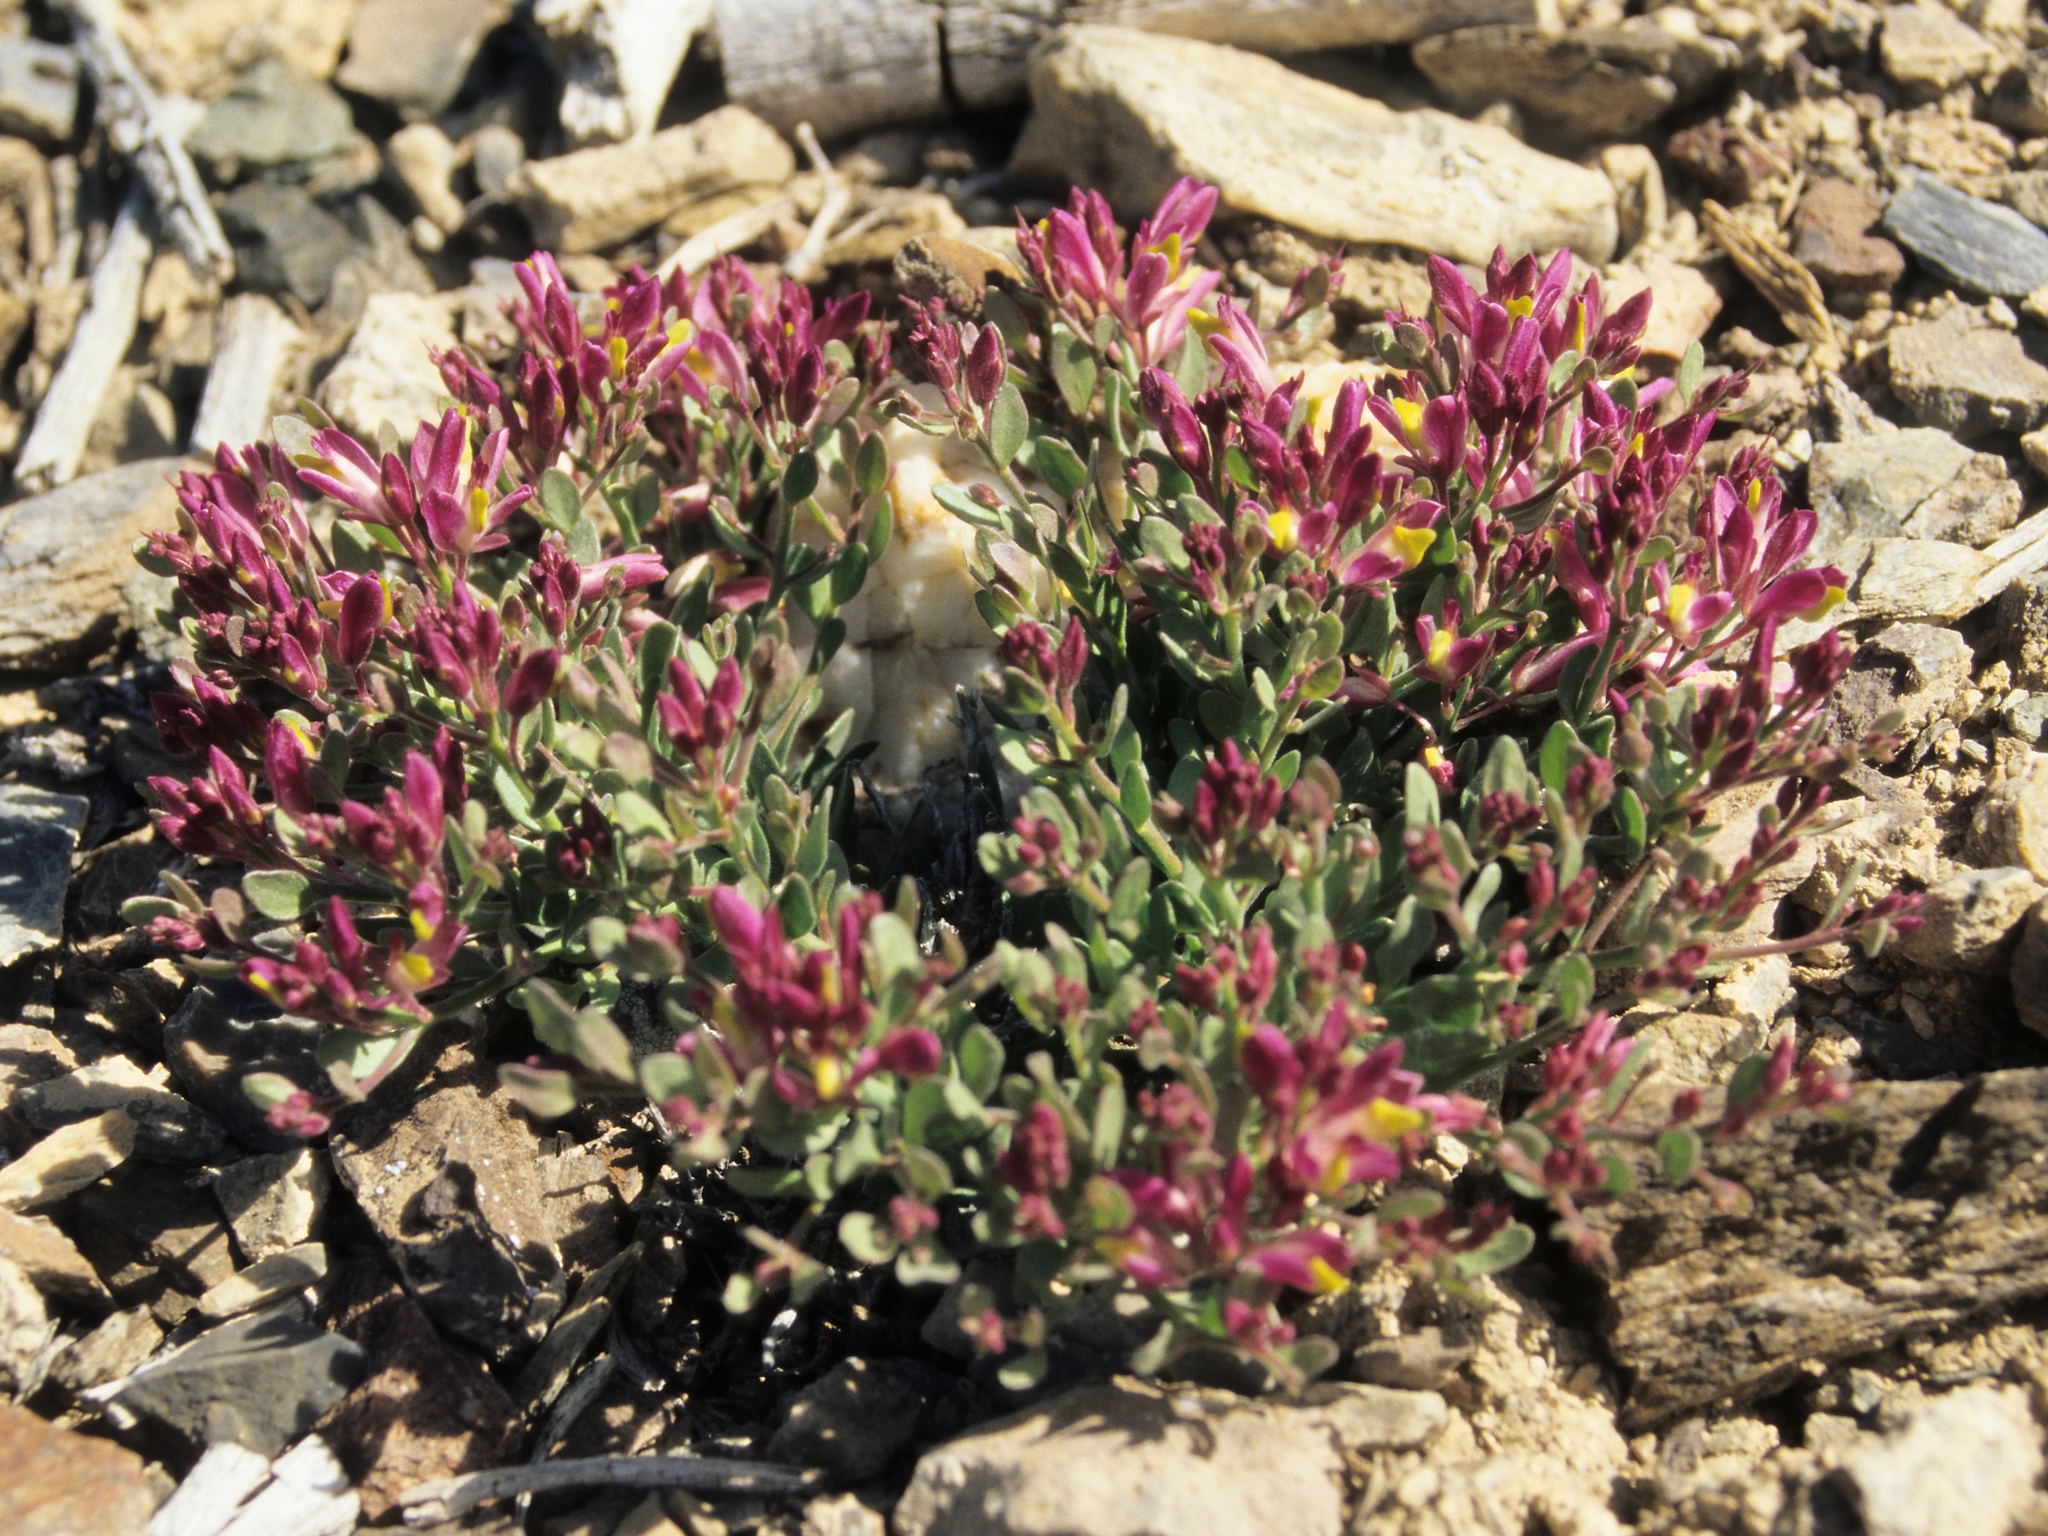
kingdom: Plantae
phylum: Tracheophyta
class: Magnoliopsida
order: Fabales
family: Polygalaceae
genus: Rhinotropis
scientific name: Rhinotropis subspinosa
